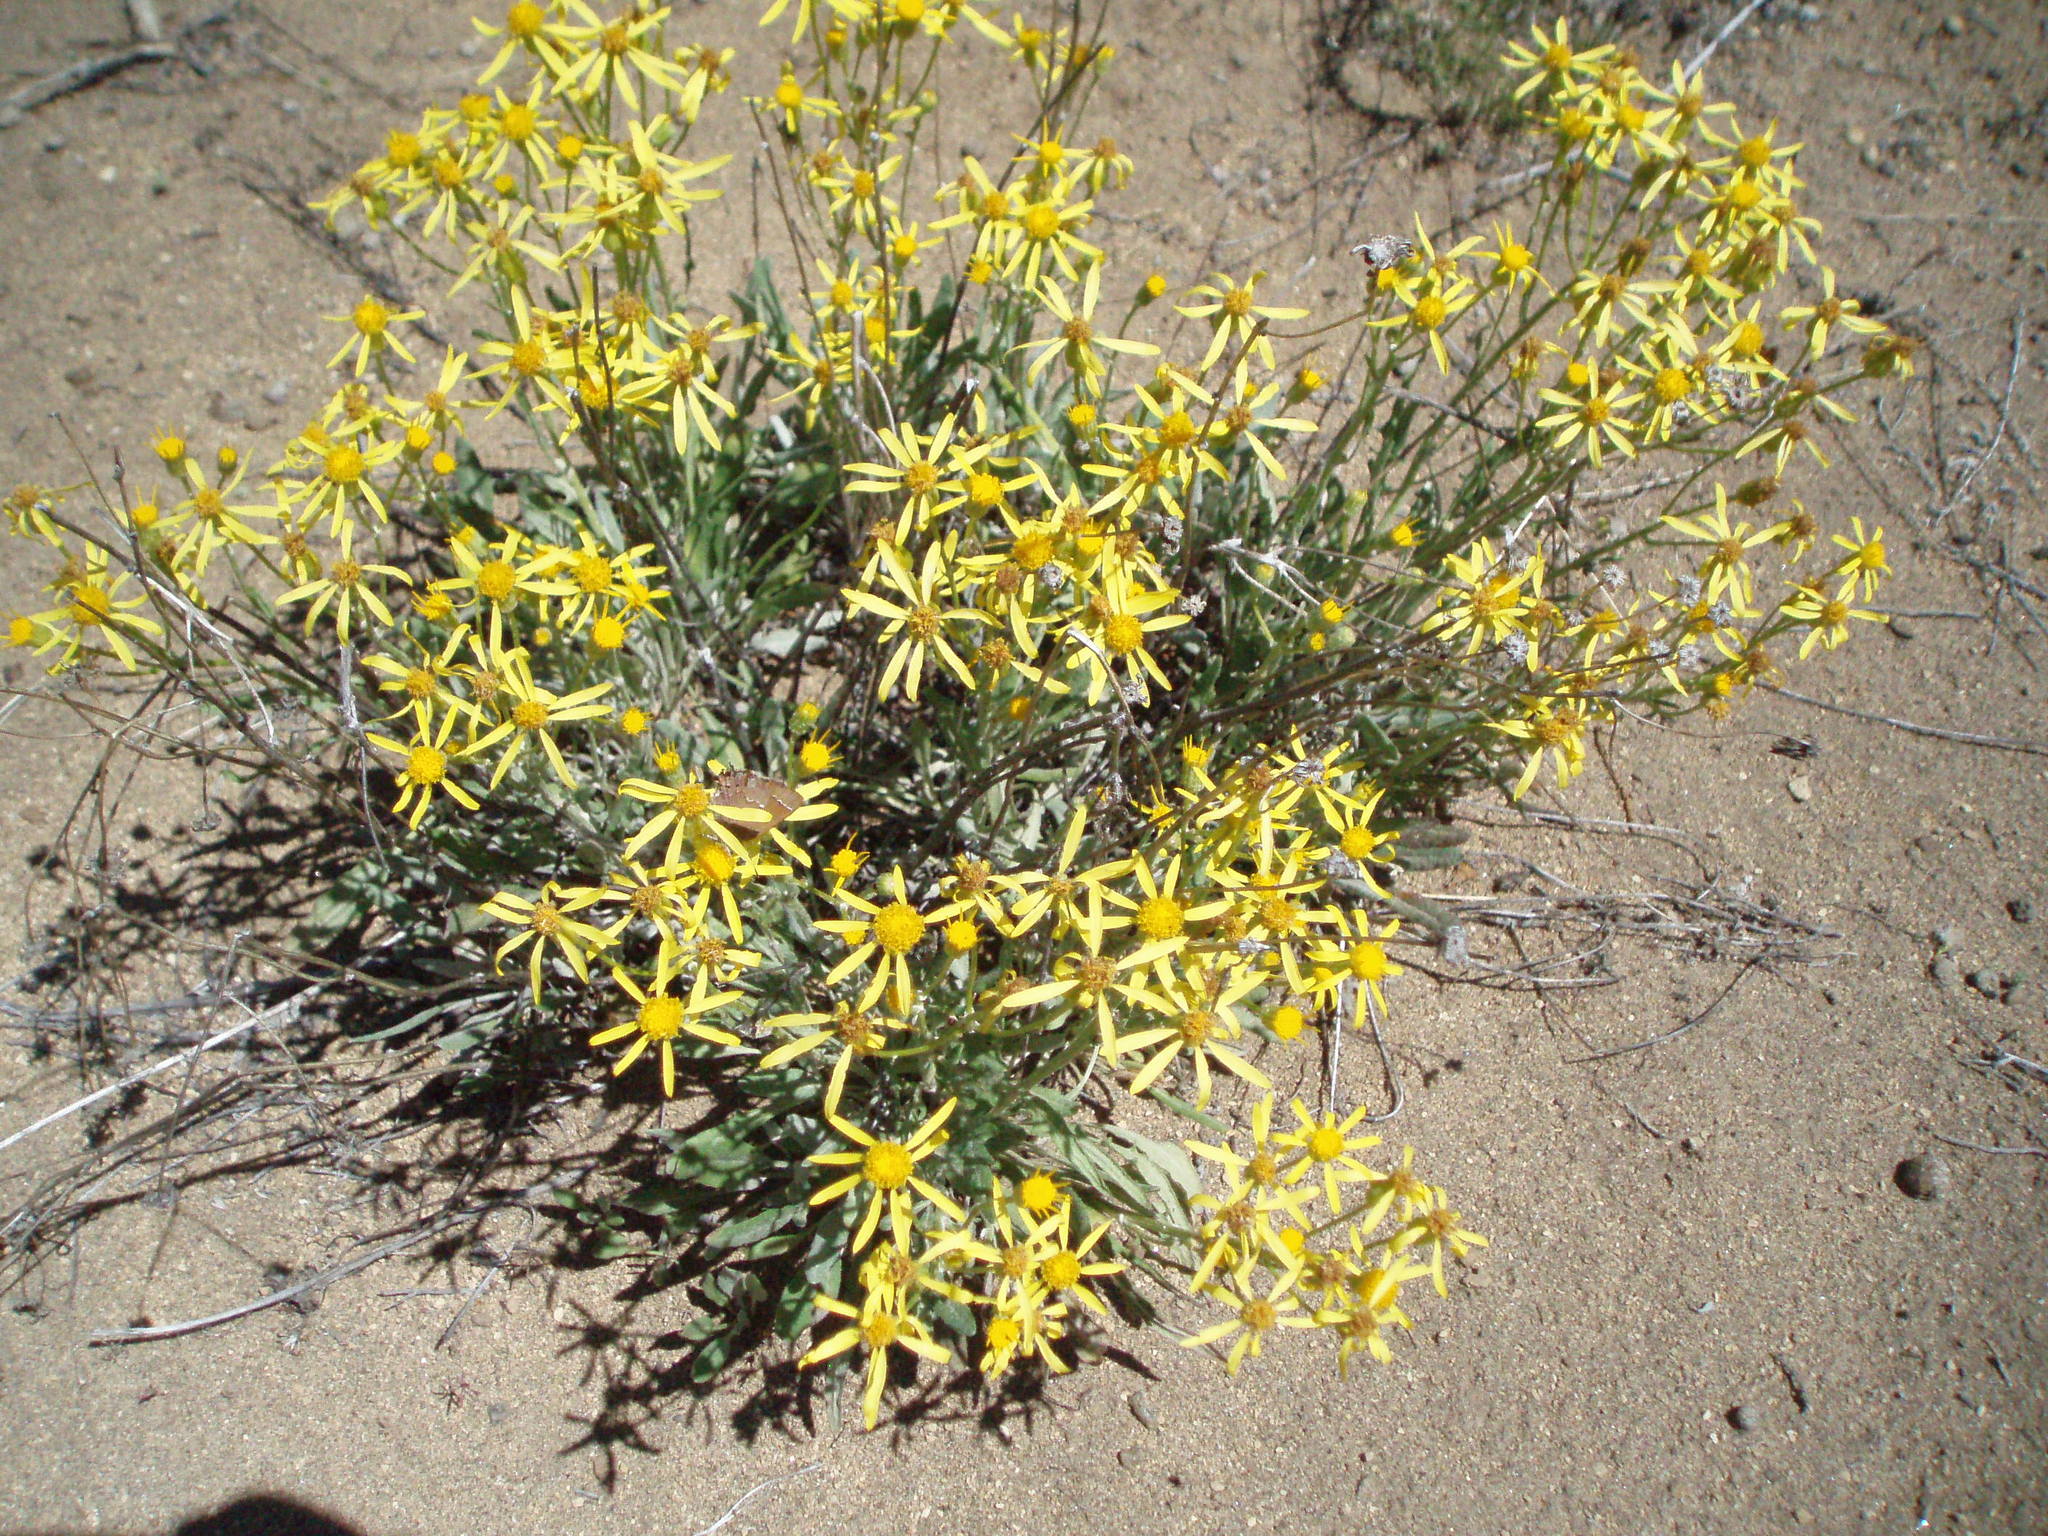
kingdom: Plantae
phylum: Tracheophyta
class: Magnoliopsida
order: Asterales
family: Asteraceae
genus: Packera
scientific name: Packera cana
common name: Woolly groundsel
